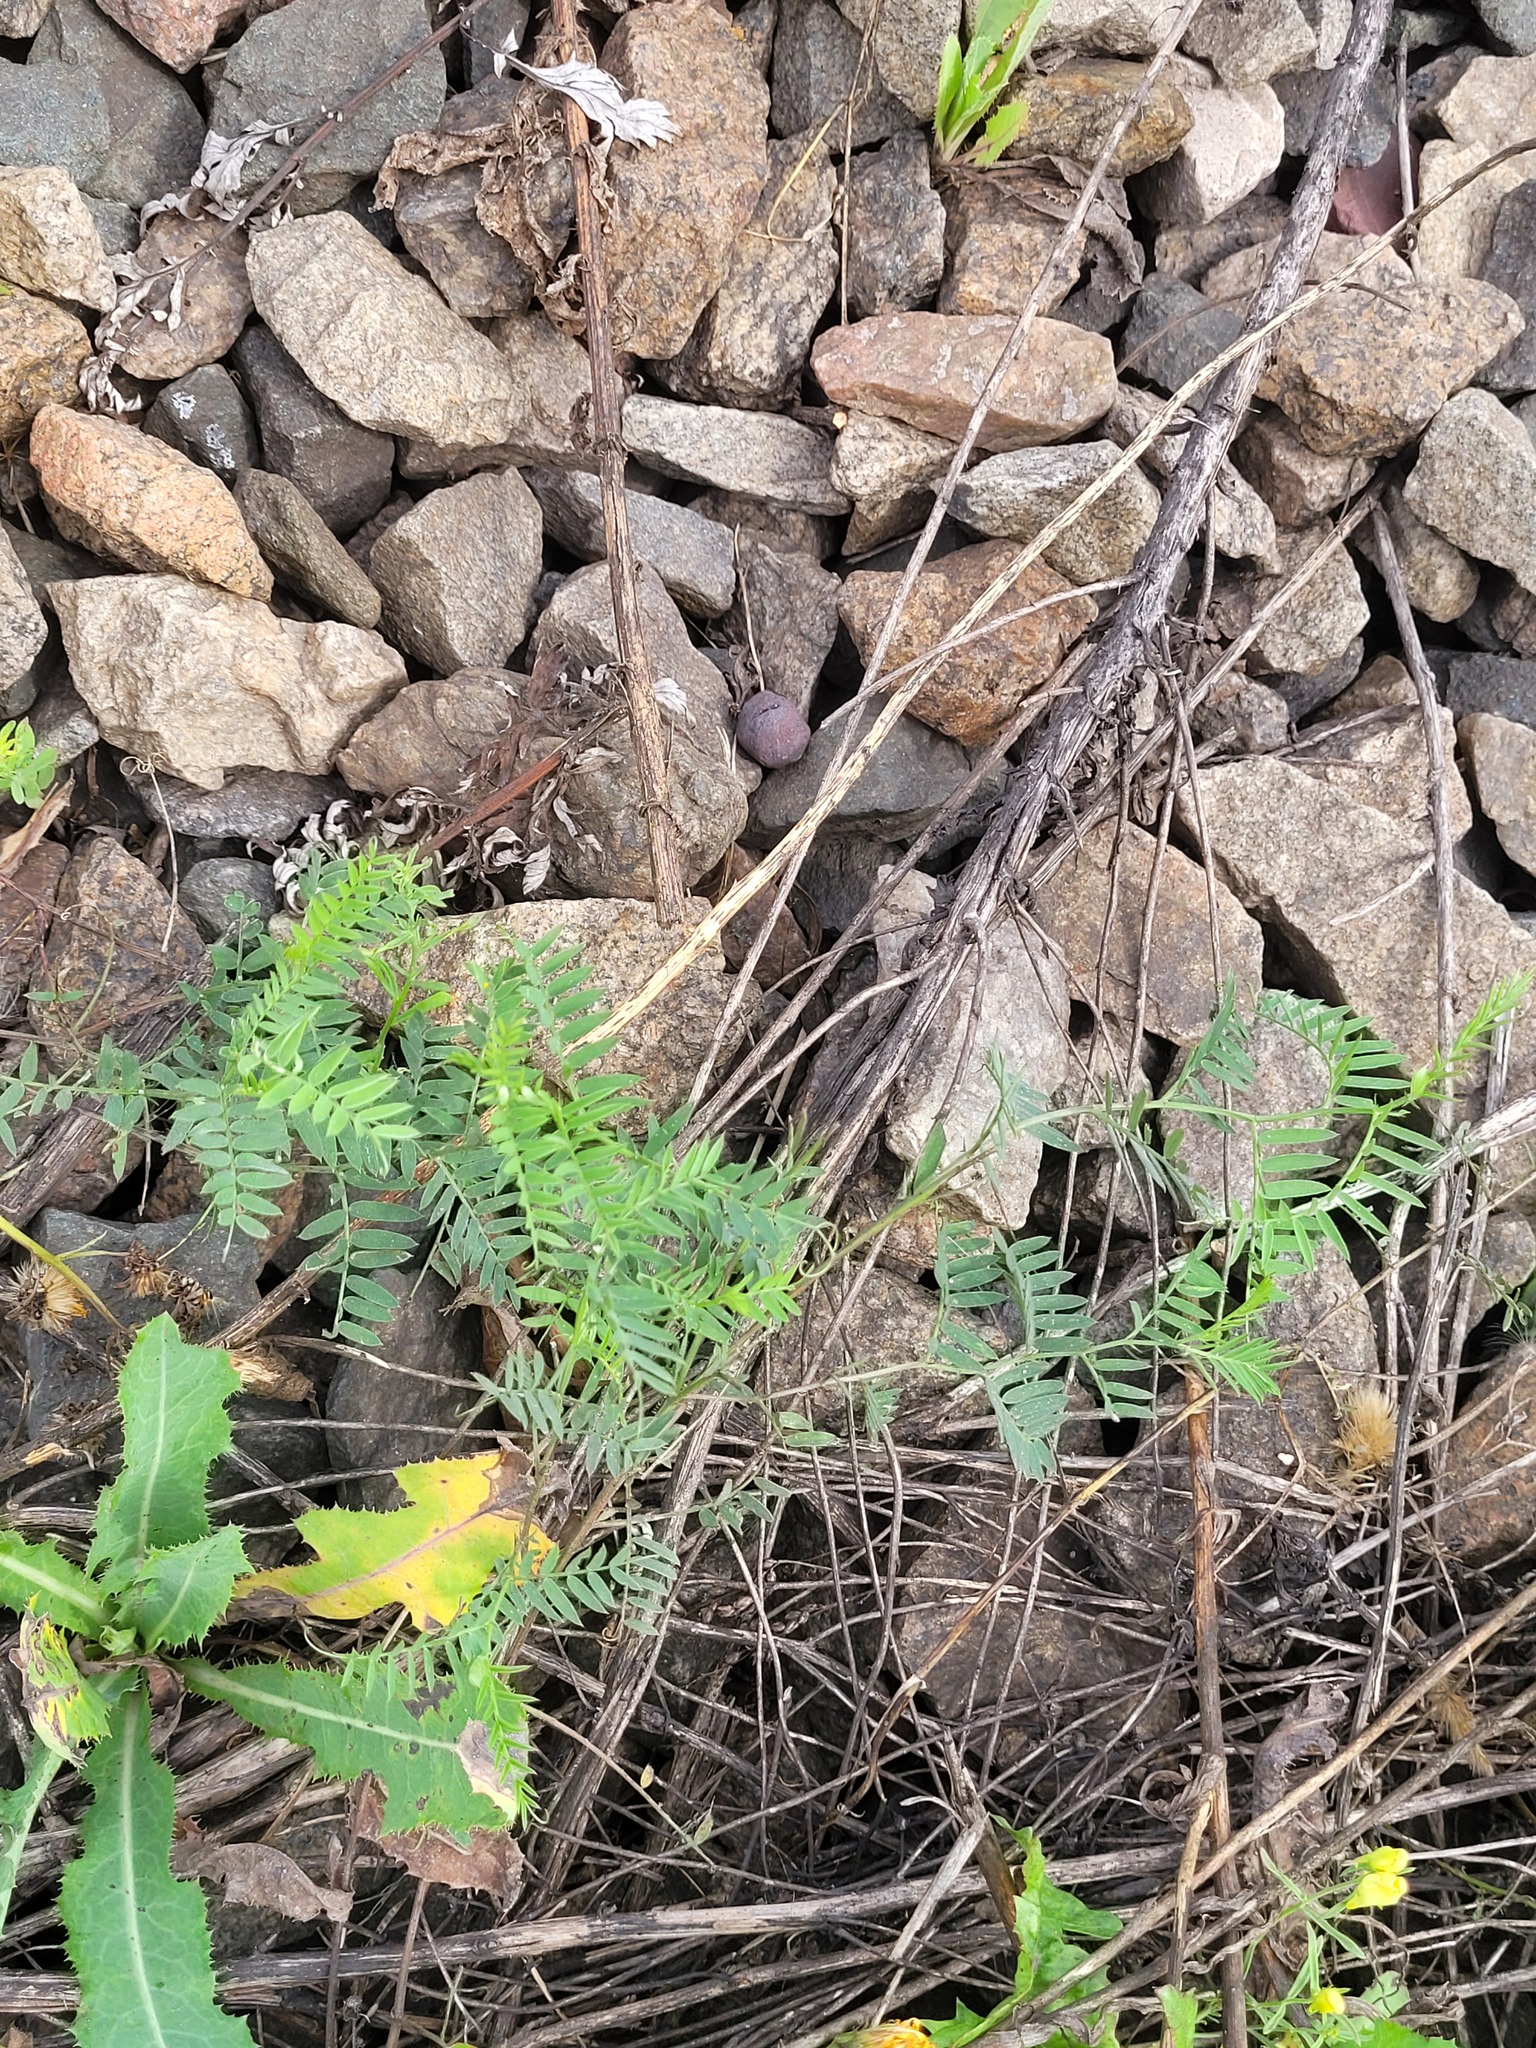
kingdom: Plantae
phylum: Tracheophyta
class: Magnoliopsida
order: Fabales
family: Fabaceae
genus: Vicia
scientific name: Vicia cracca
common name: Bird vetch
